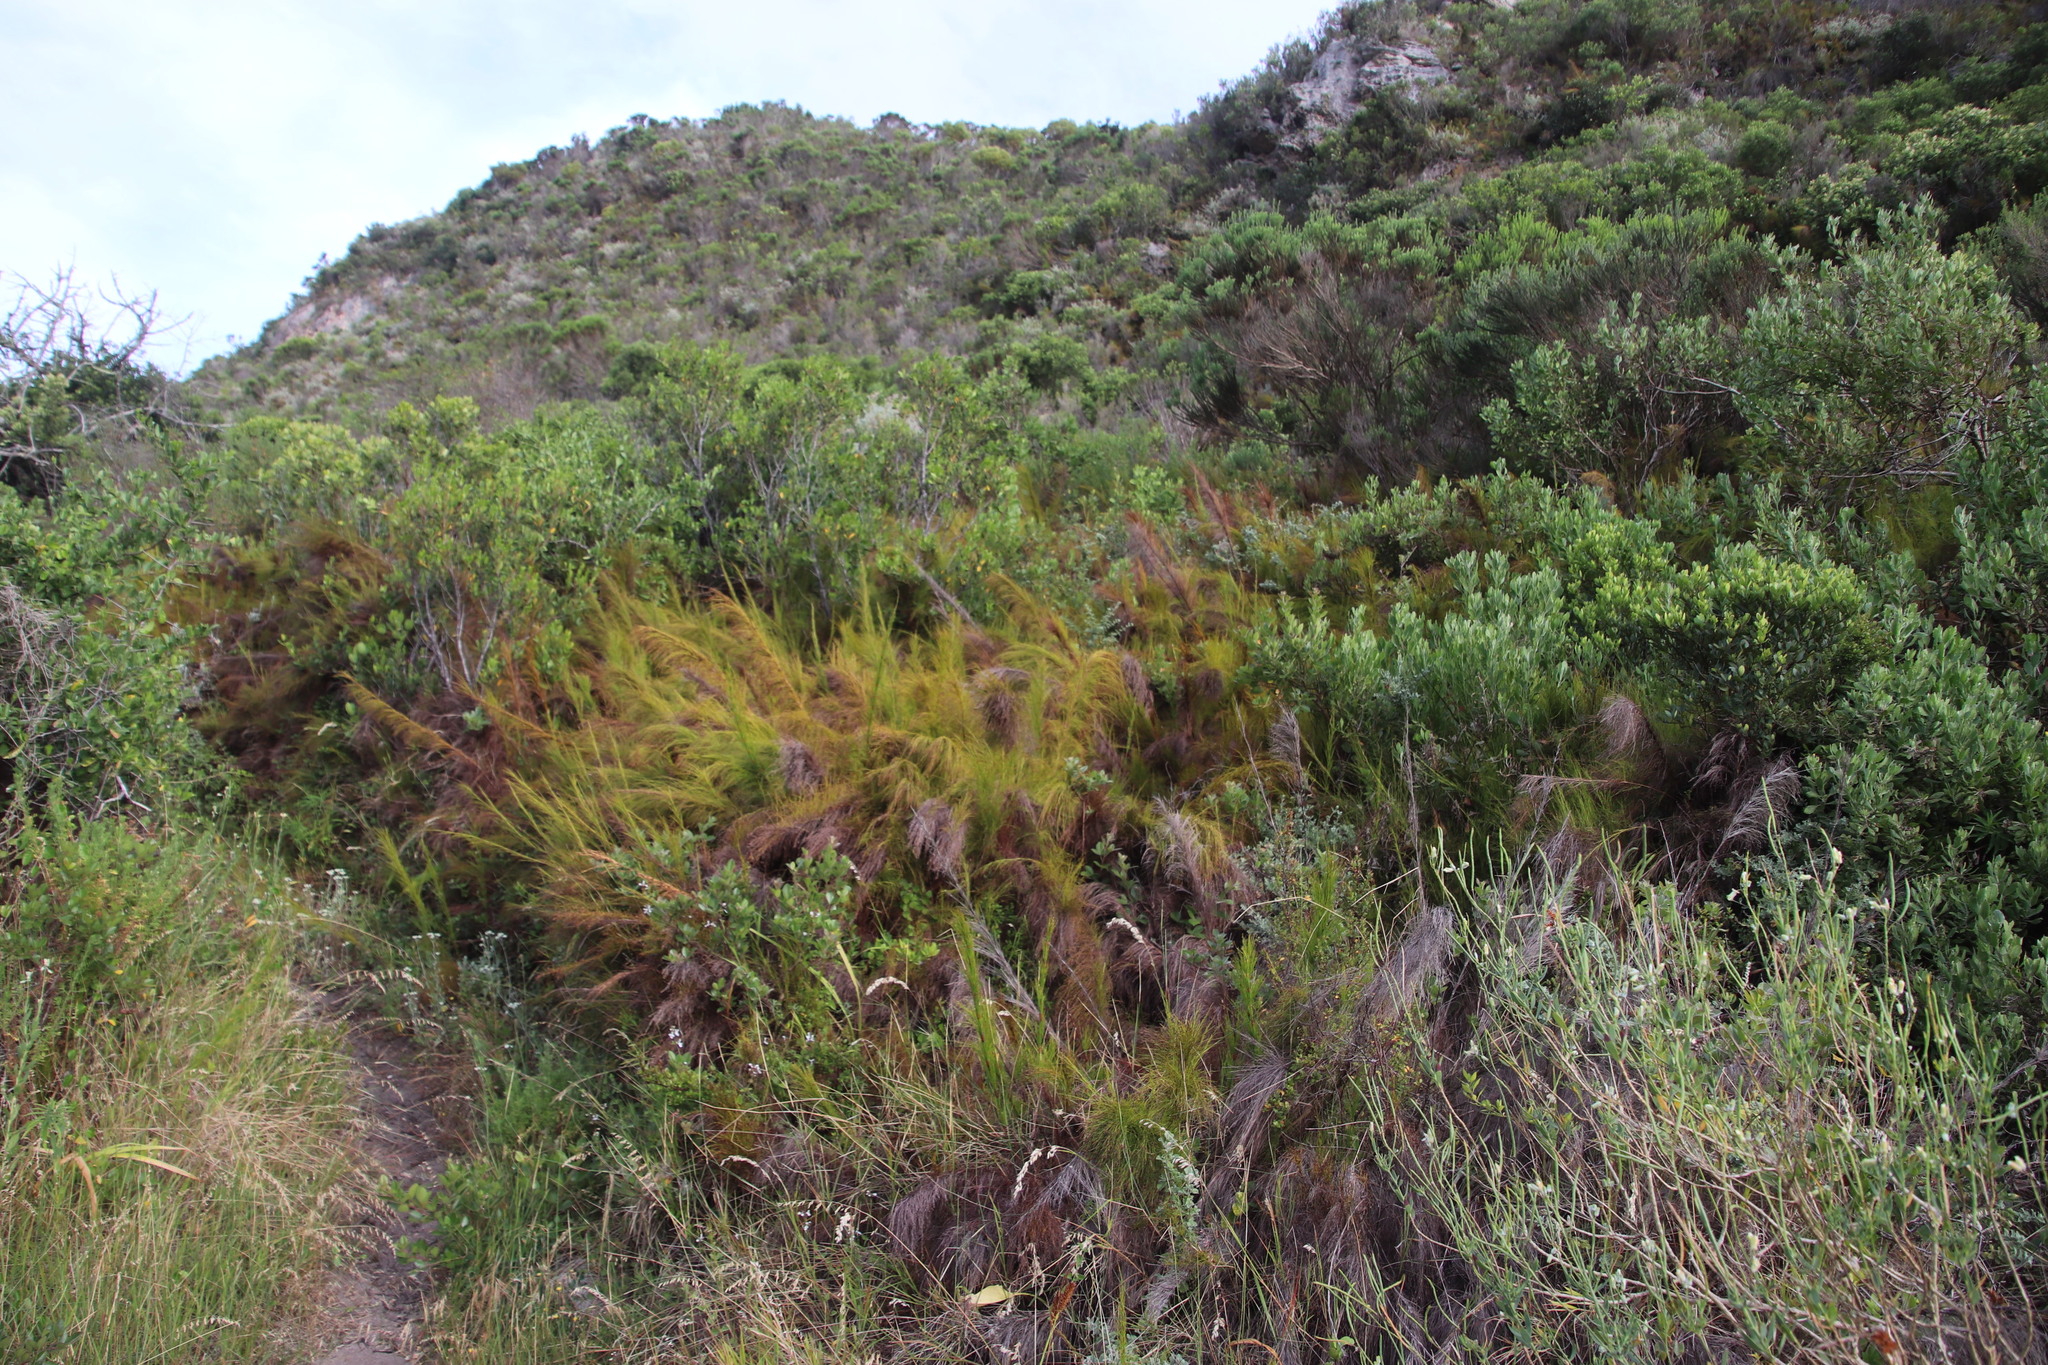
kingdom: Plantae
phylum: Tracheophyta
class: Liliopsida
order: Poales
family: Restionaceae
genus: Restio
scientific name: Restio leptoclados
